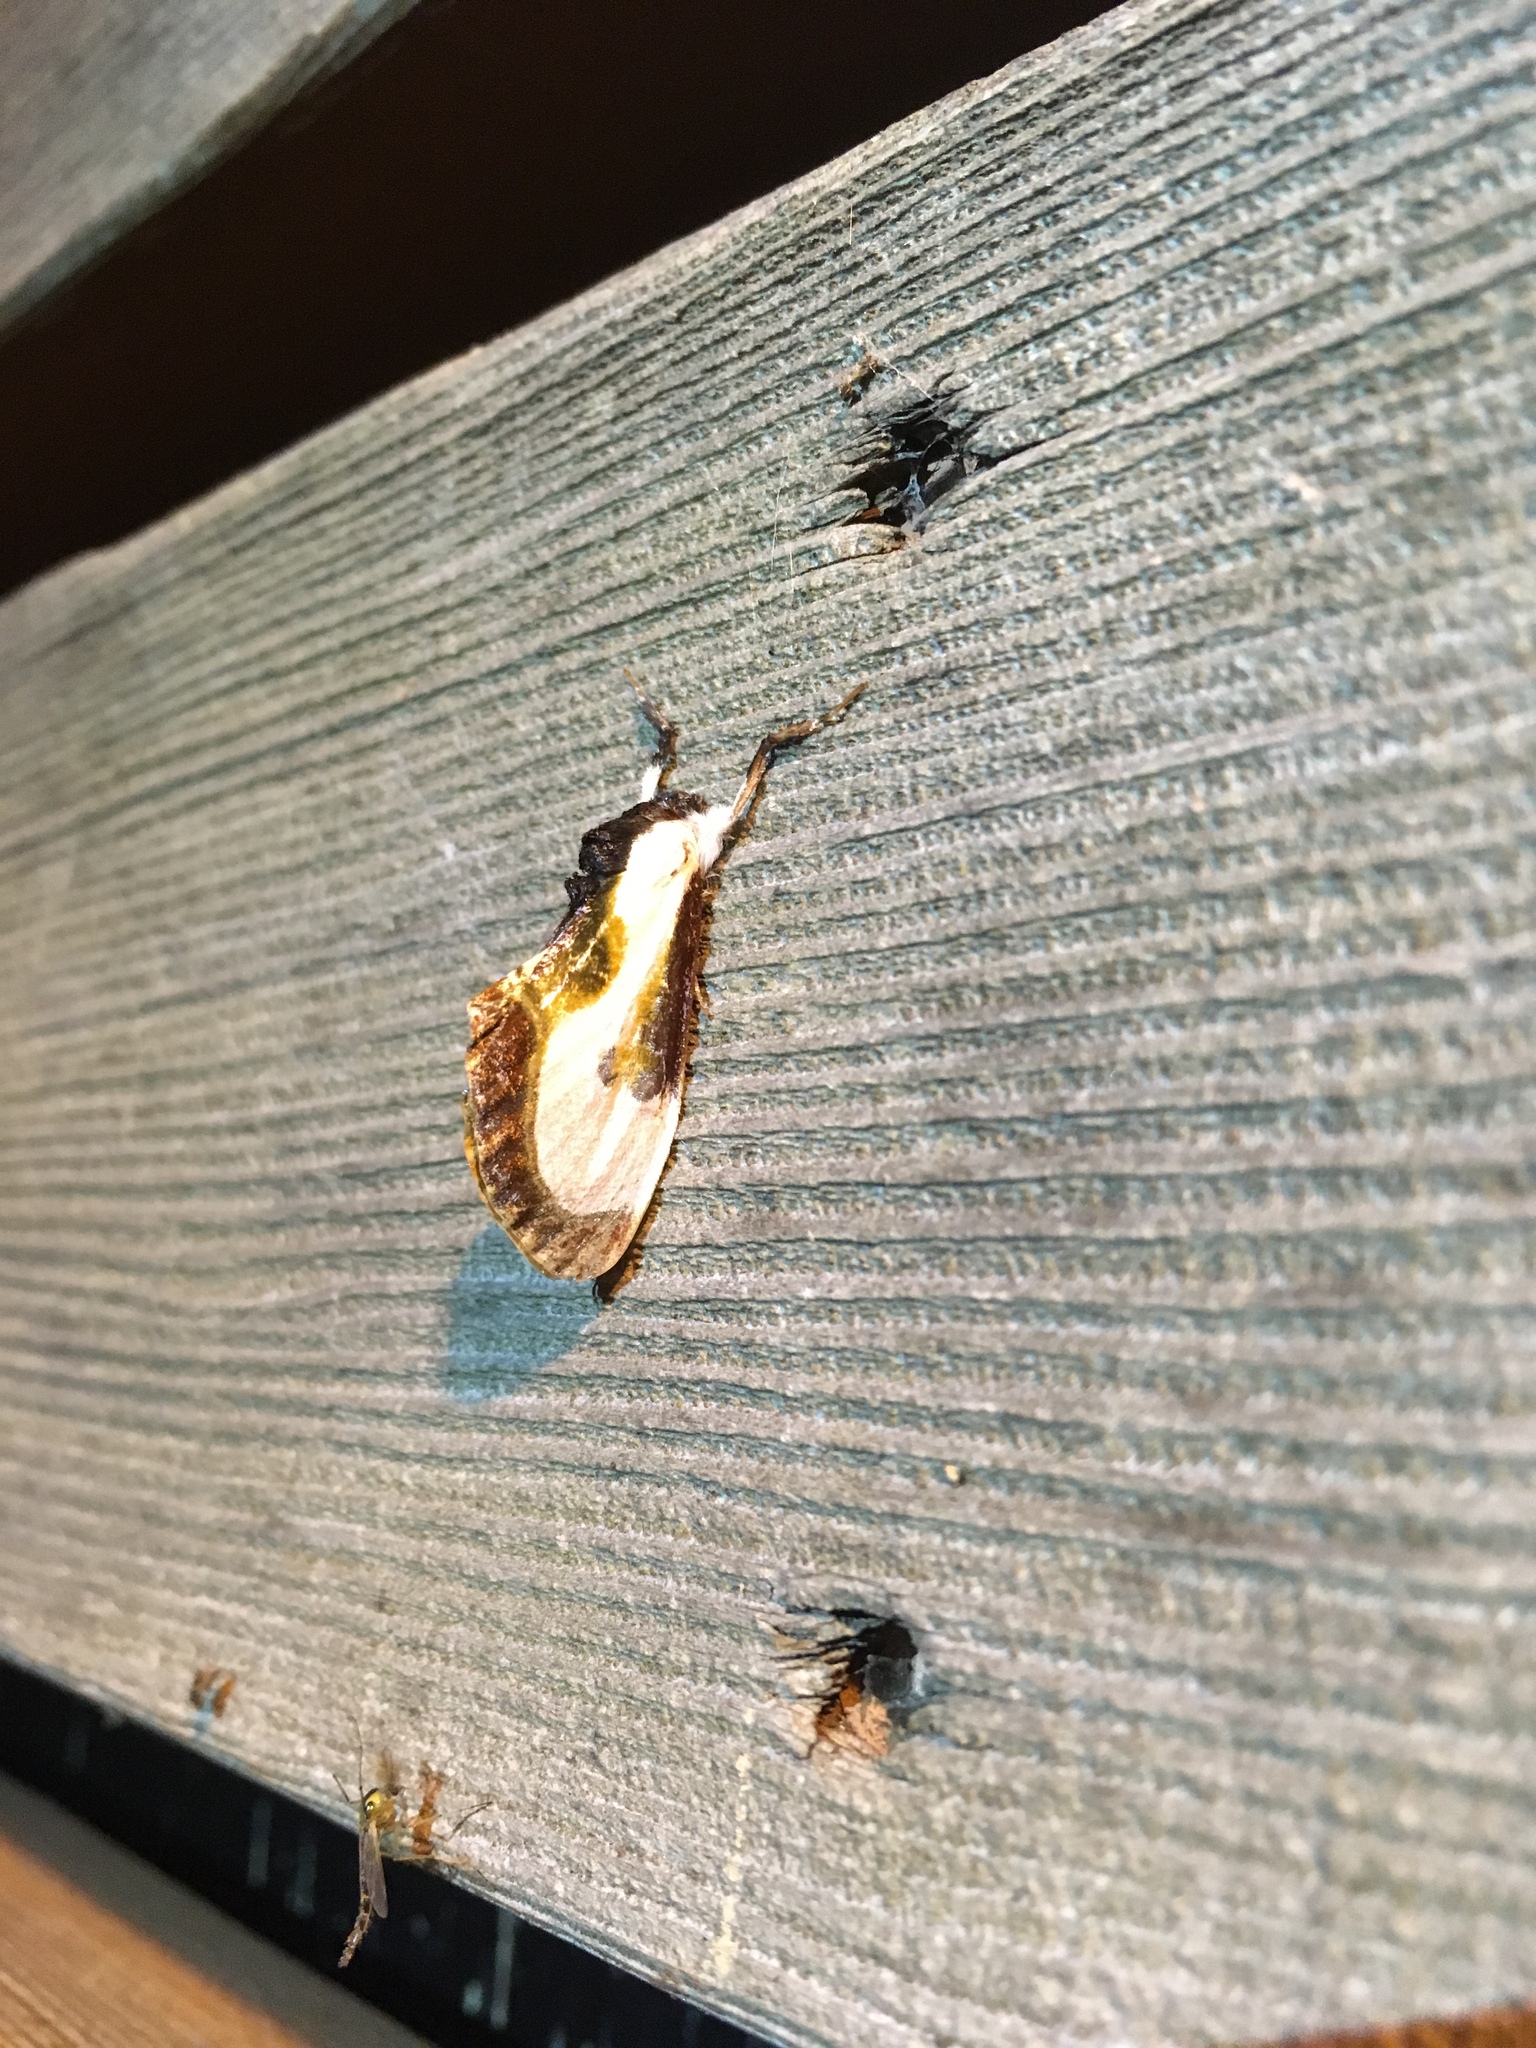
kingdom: Animalia
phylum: Arthropoda
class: Insecta
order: Lepidoptera
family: Noctuidae
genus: Eudryas
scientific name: Eudryas grata
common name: Beautiful wood-nymph
